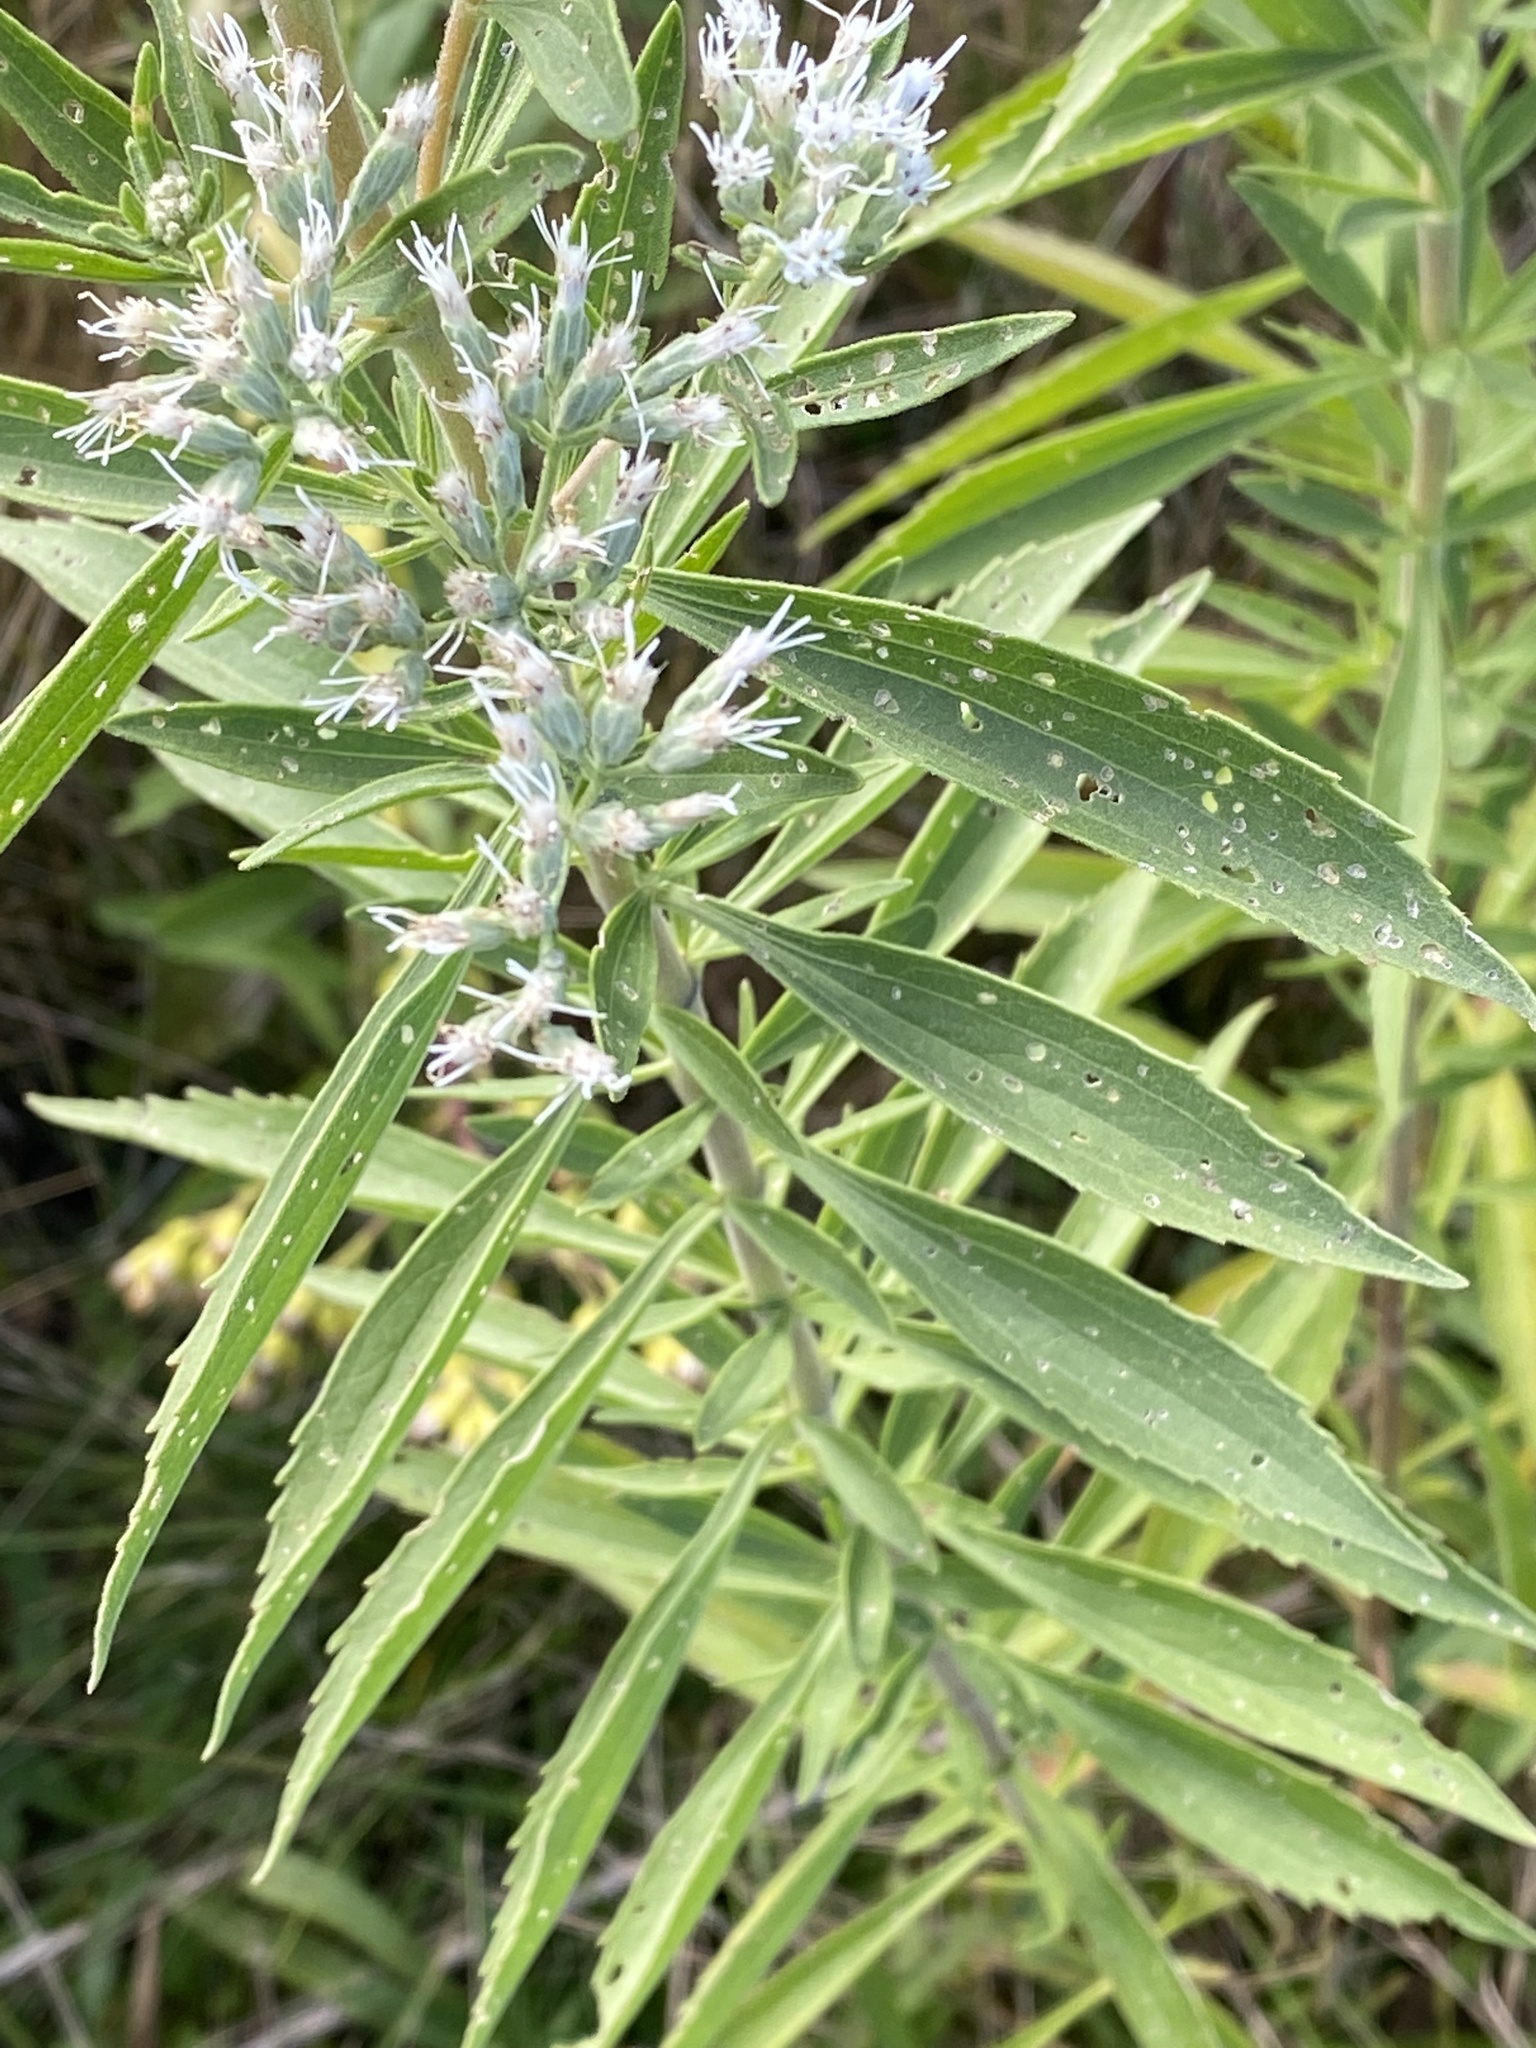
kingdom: Plantae
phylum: Tracheophyta
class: Magnoliopsida
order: Asterales
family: Asteraceae
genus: Eupatorium
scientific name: Eupatorium altissimum
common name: Tall thoroughwort
